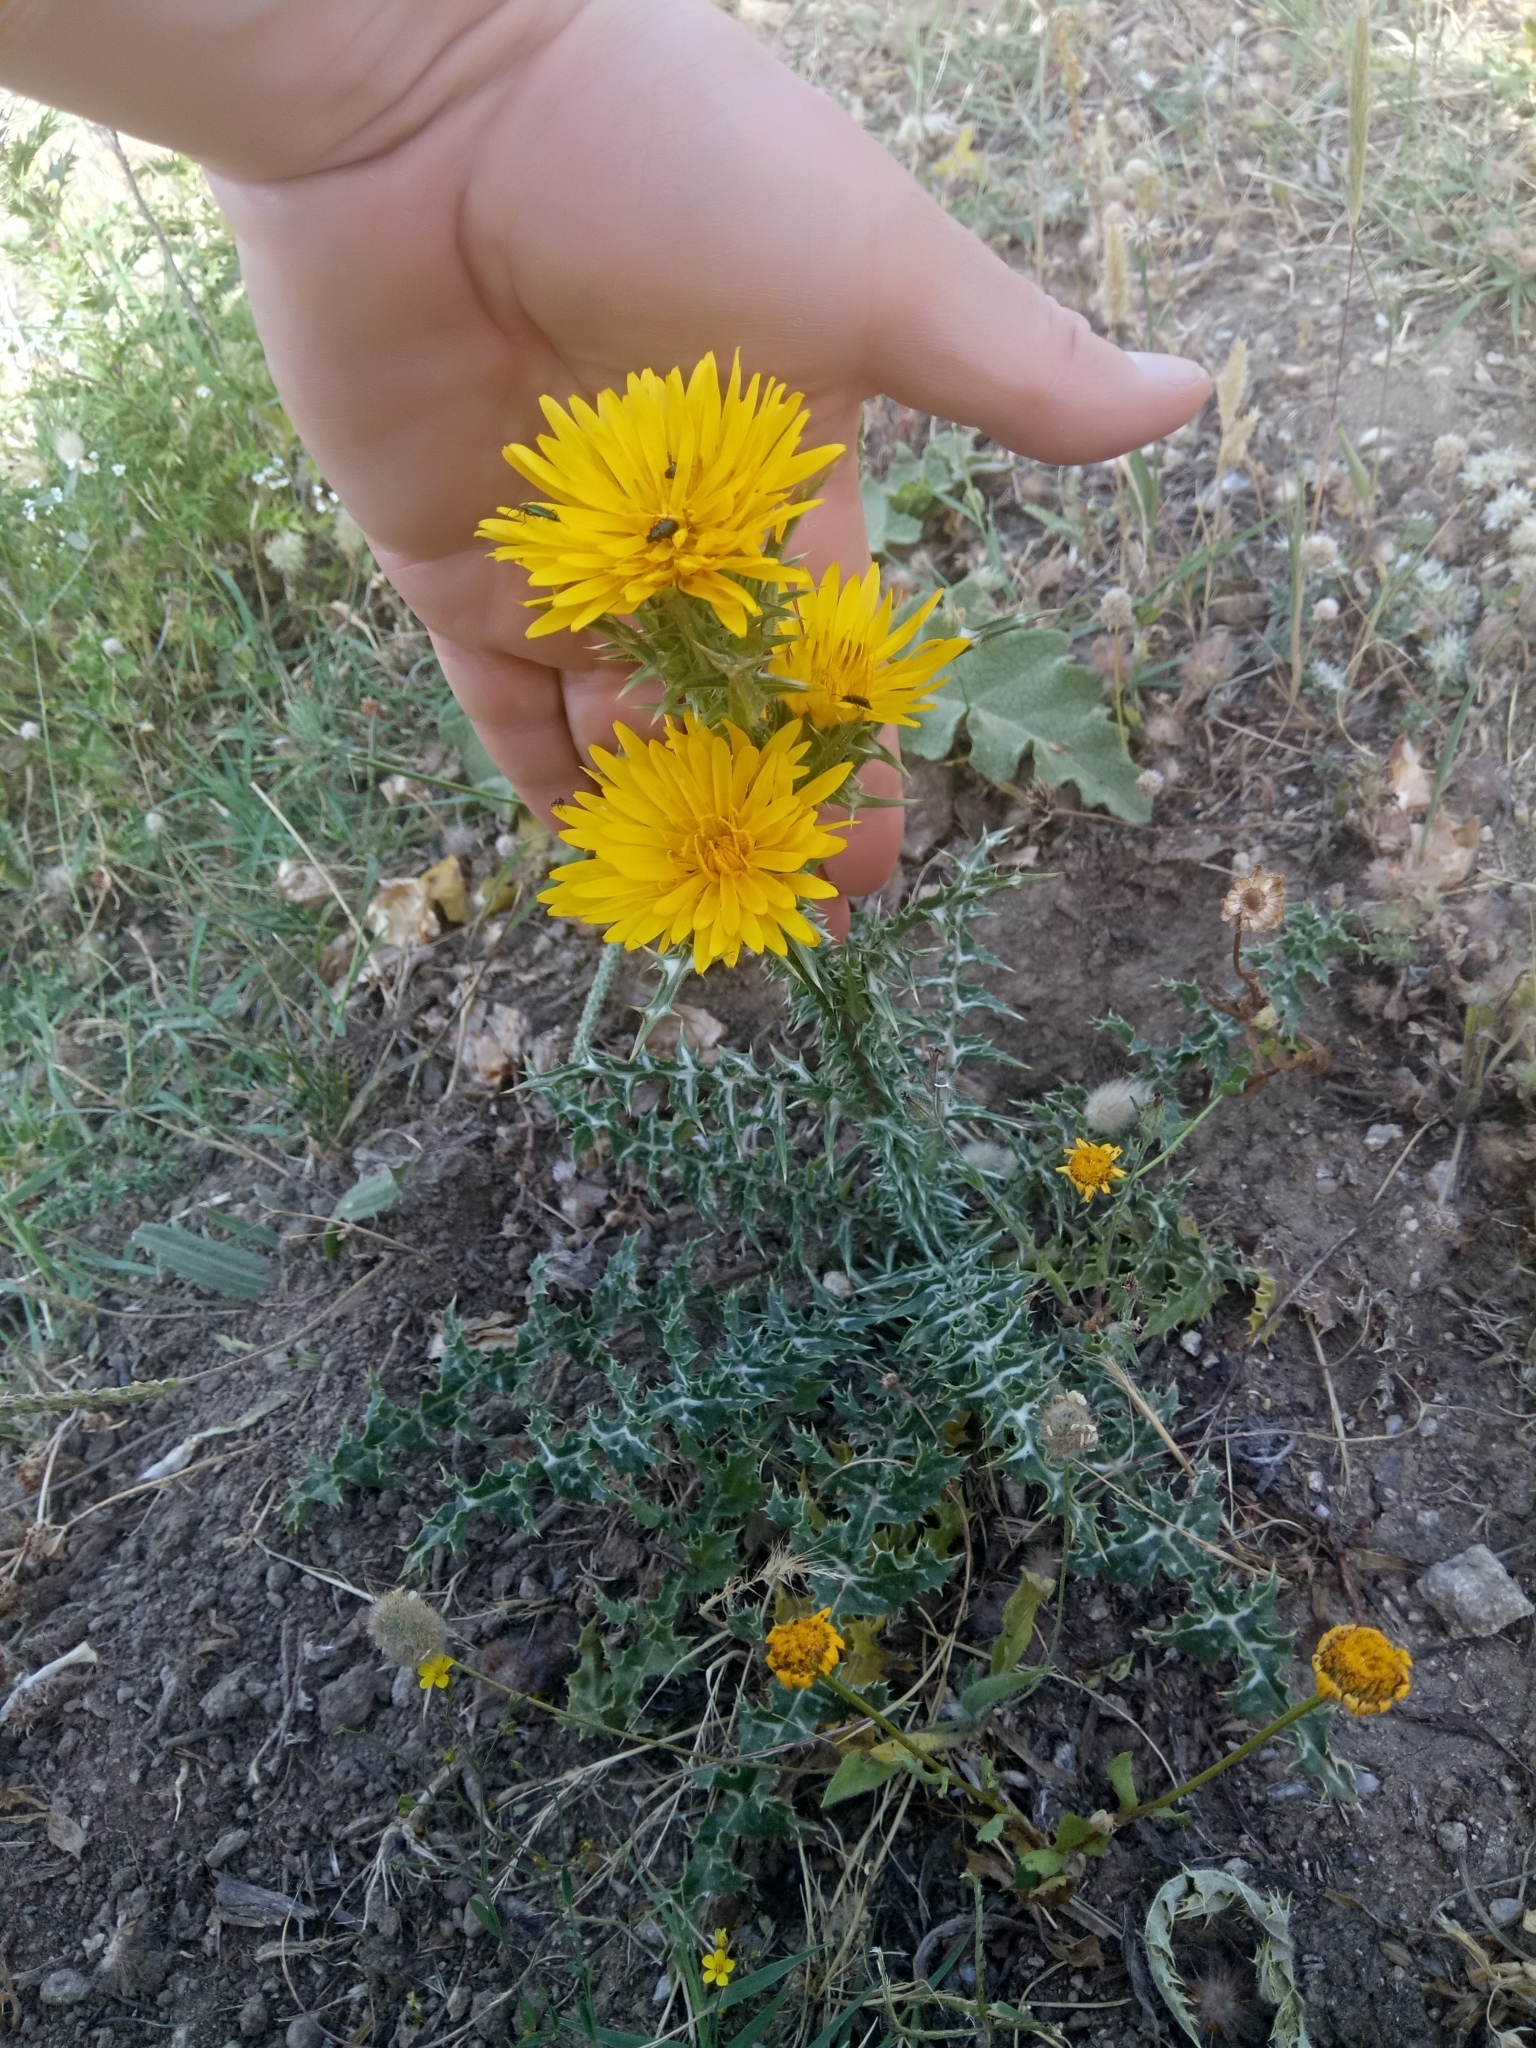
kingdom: Plantae
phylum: Tracheophyta
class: Magnoliopsida
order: Asterales
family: Asteraceae
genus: Scolymus
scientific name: Scolymus grandiflorus
